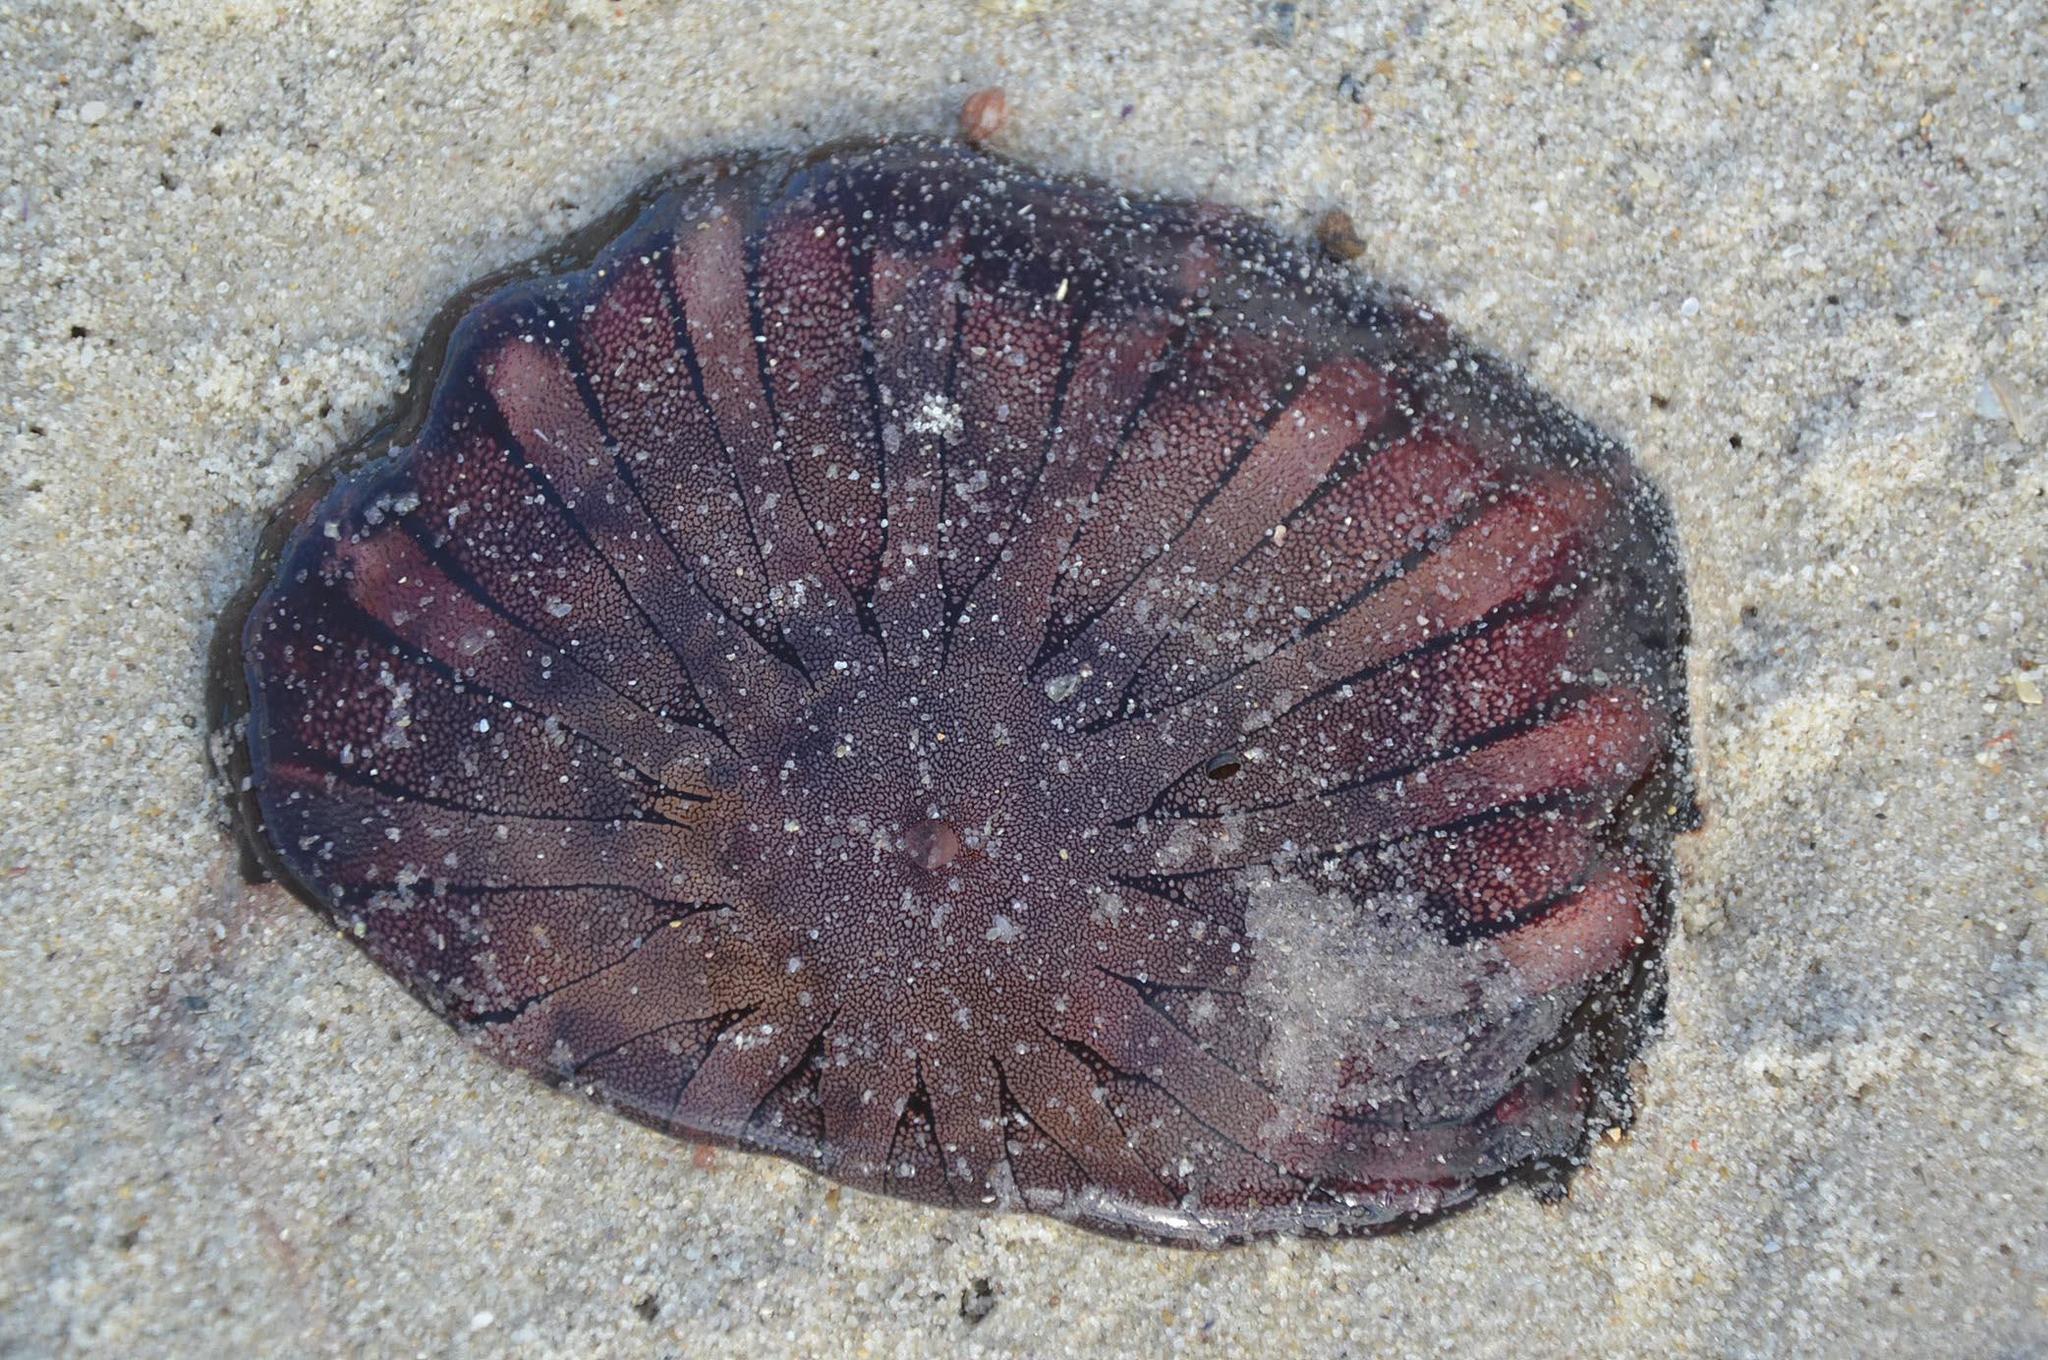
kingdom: Animalia
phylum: Cnidaria
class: Scyphozoa
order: Semaeostomeae
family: Pelagiidae
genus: Chrysaora
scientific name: Chrysaora fulgida
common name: Sea nettle
